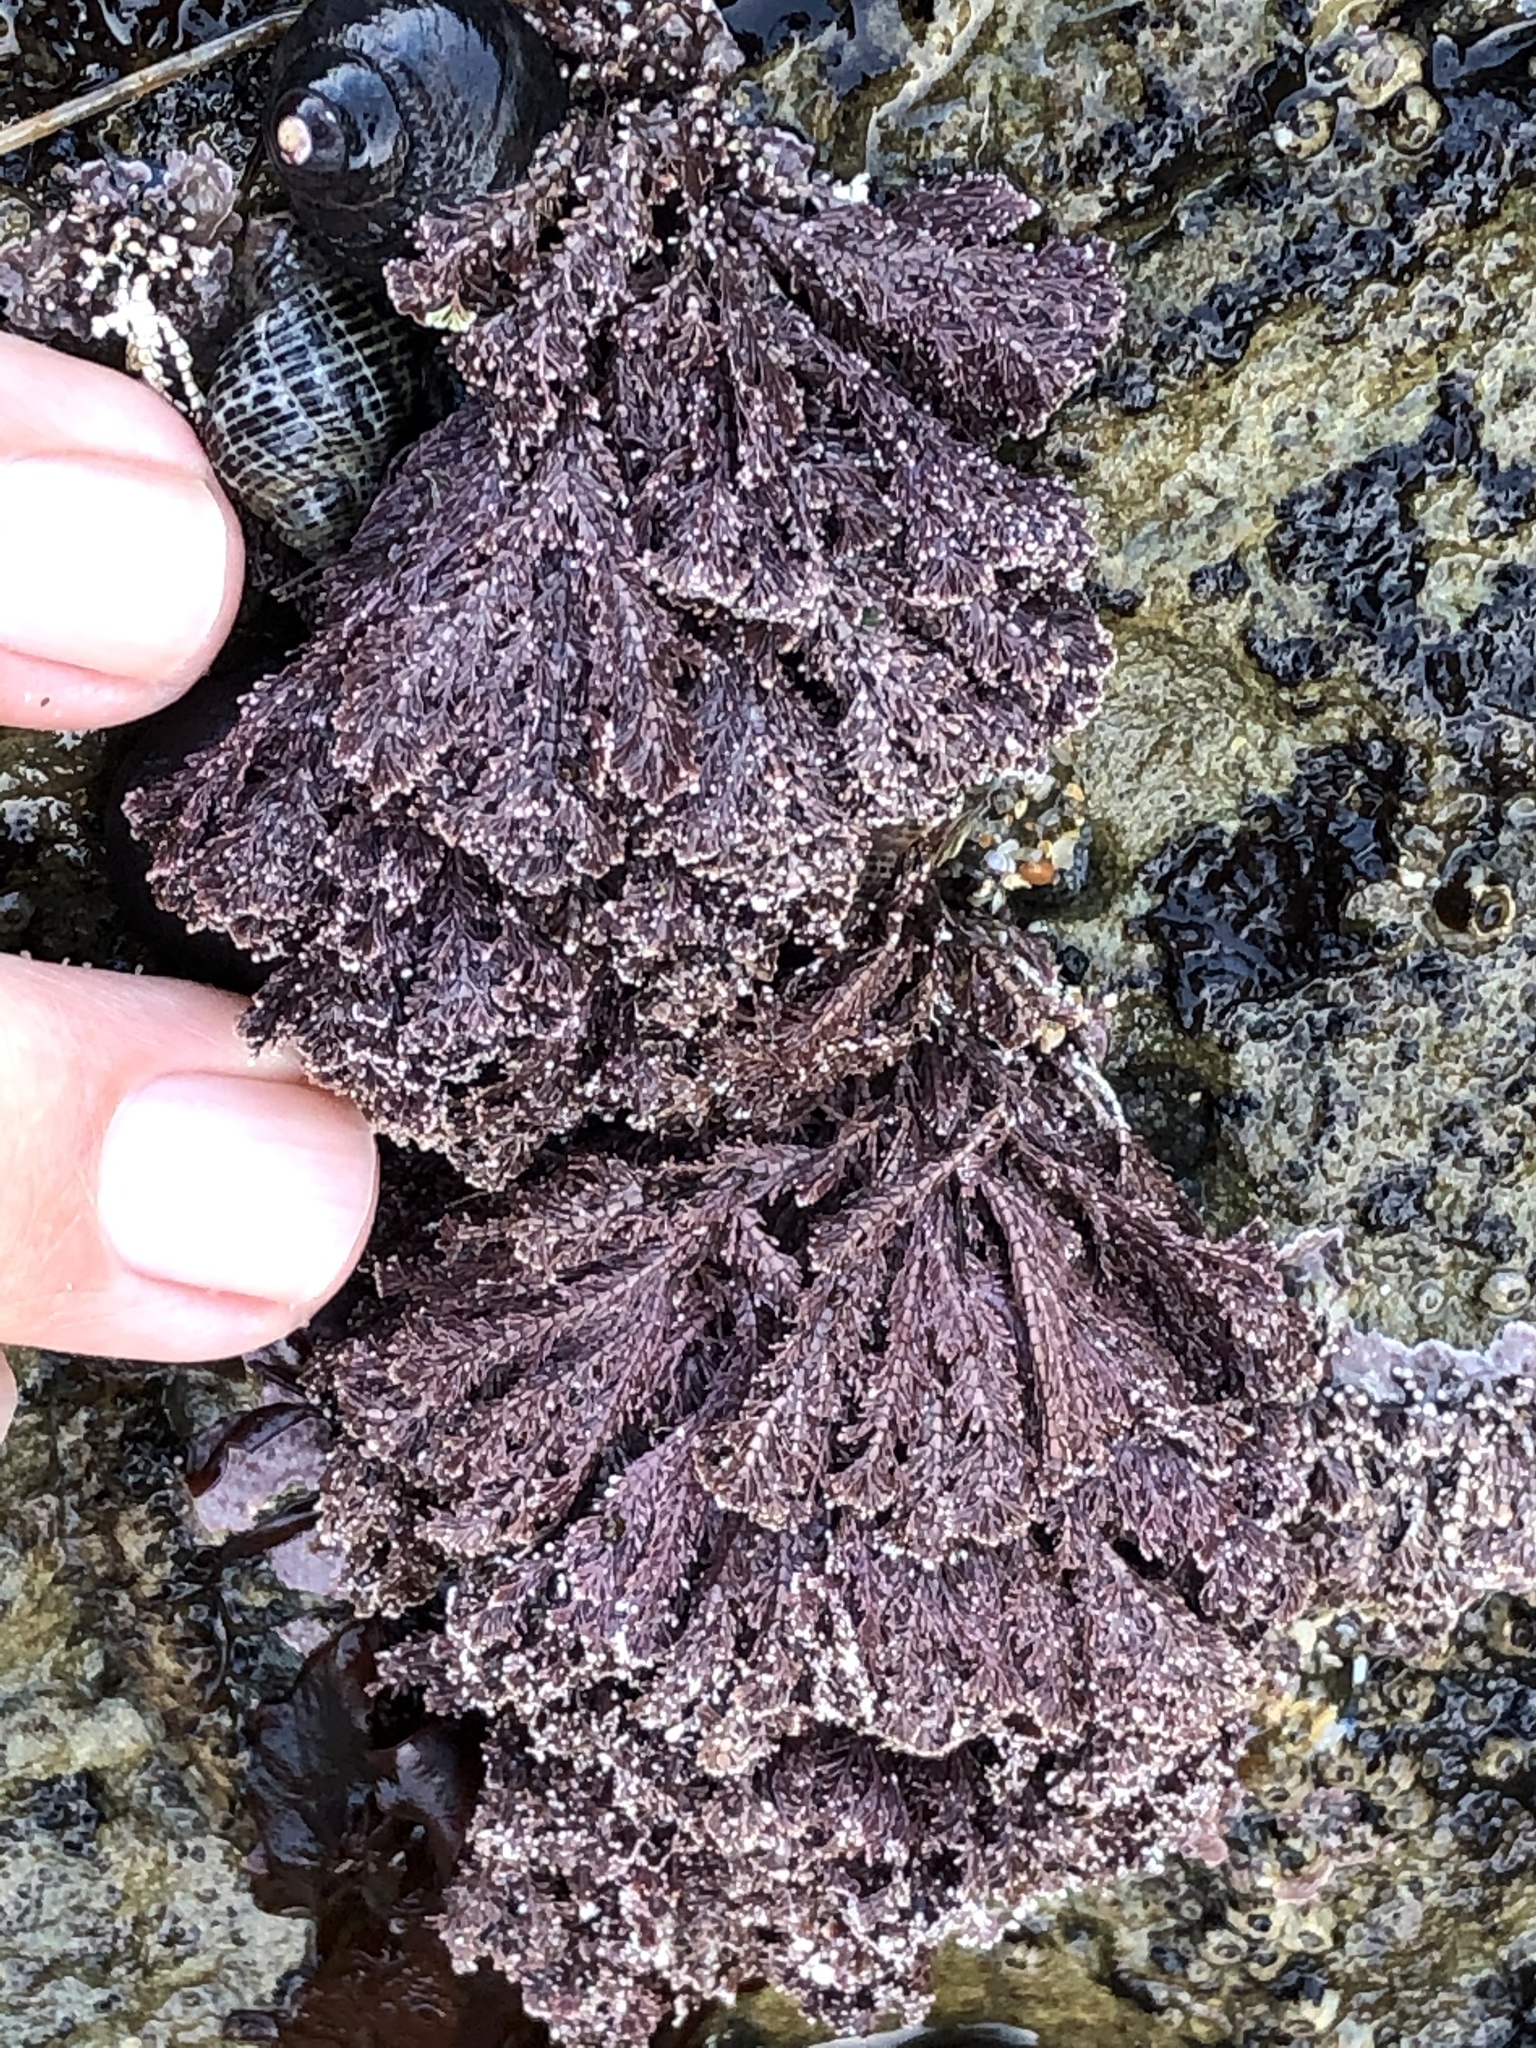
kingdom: Plantae
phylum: Rhodophyta
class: Florideophyceae
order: Corallinales
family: Corallinaceae
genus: Corallina
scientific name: Corallina vancouveriensis
